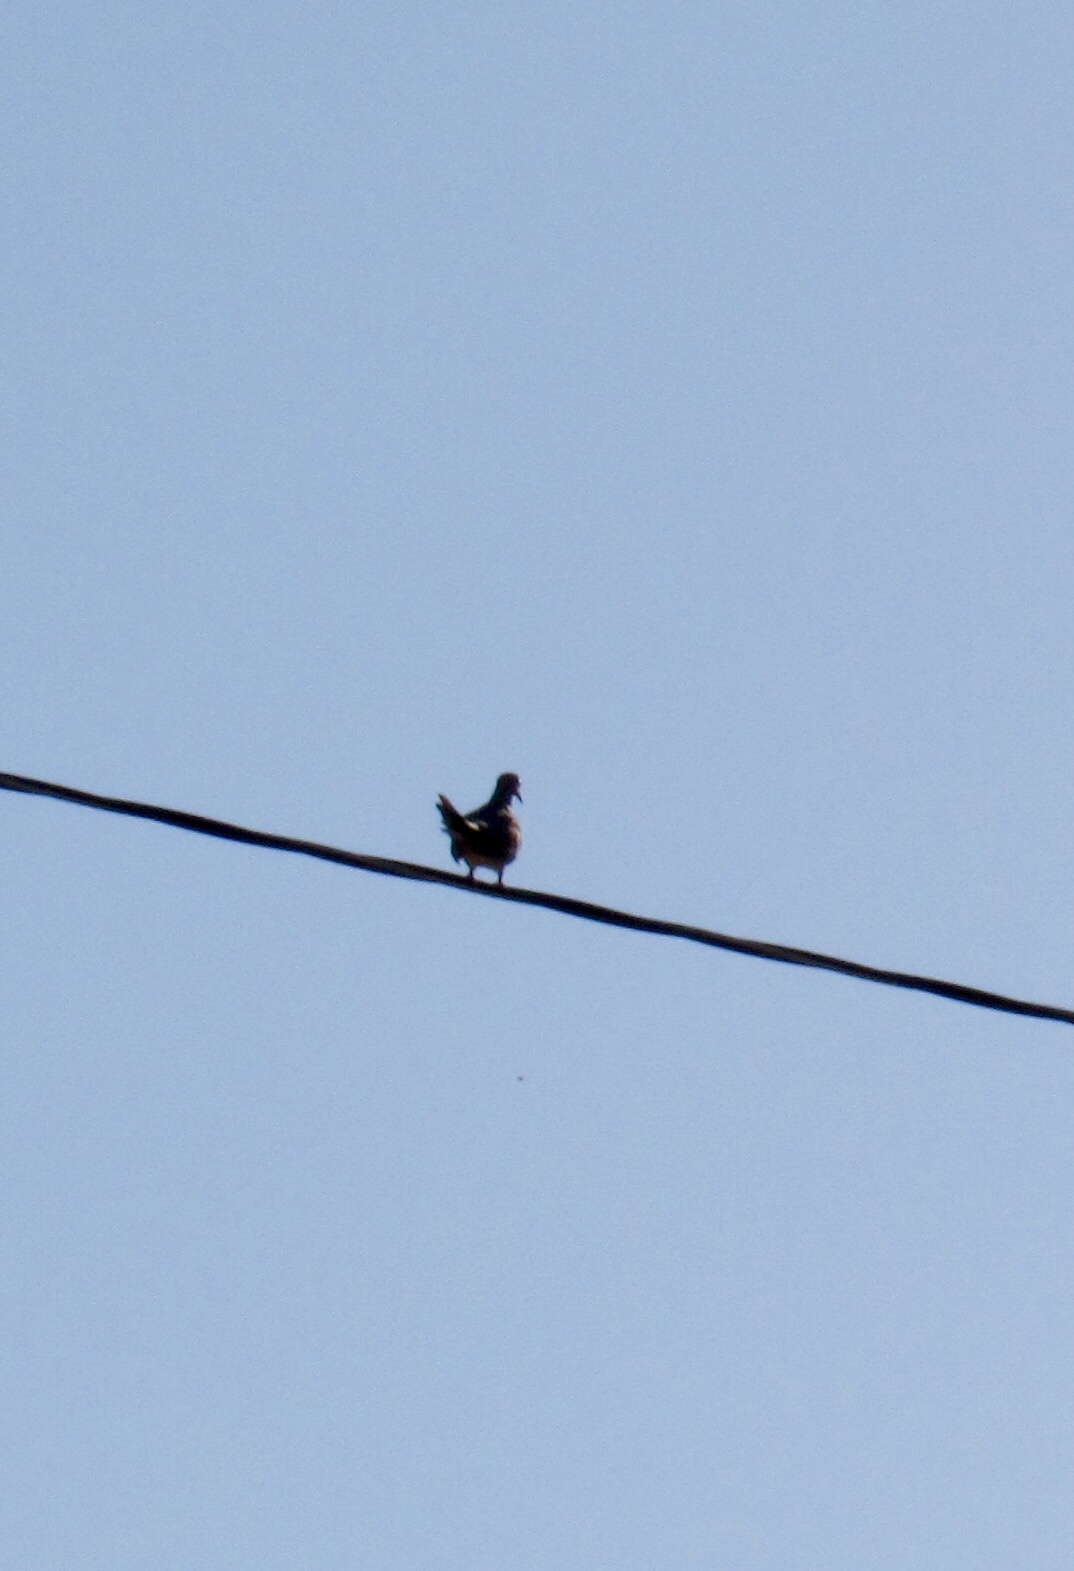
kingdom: Animalia
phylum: Chordata
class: Aves
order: Columbiformes
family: Columbidae
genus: Zenaida
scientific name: Zenaida macroura
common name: Mourning dove
